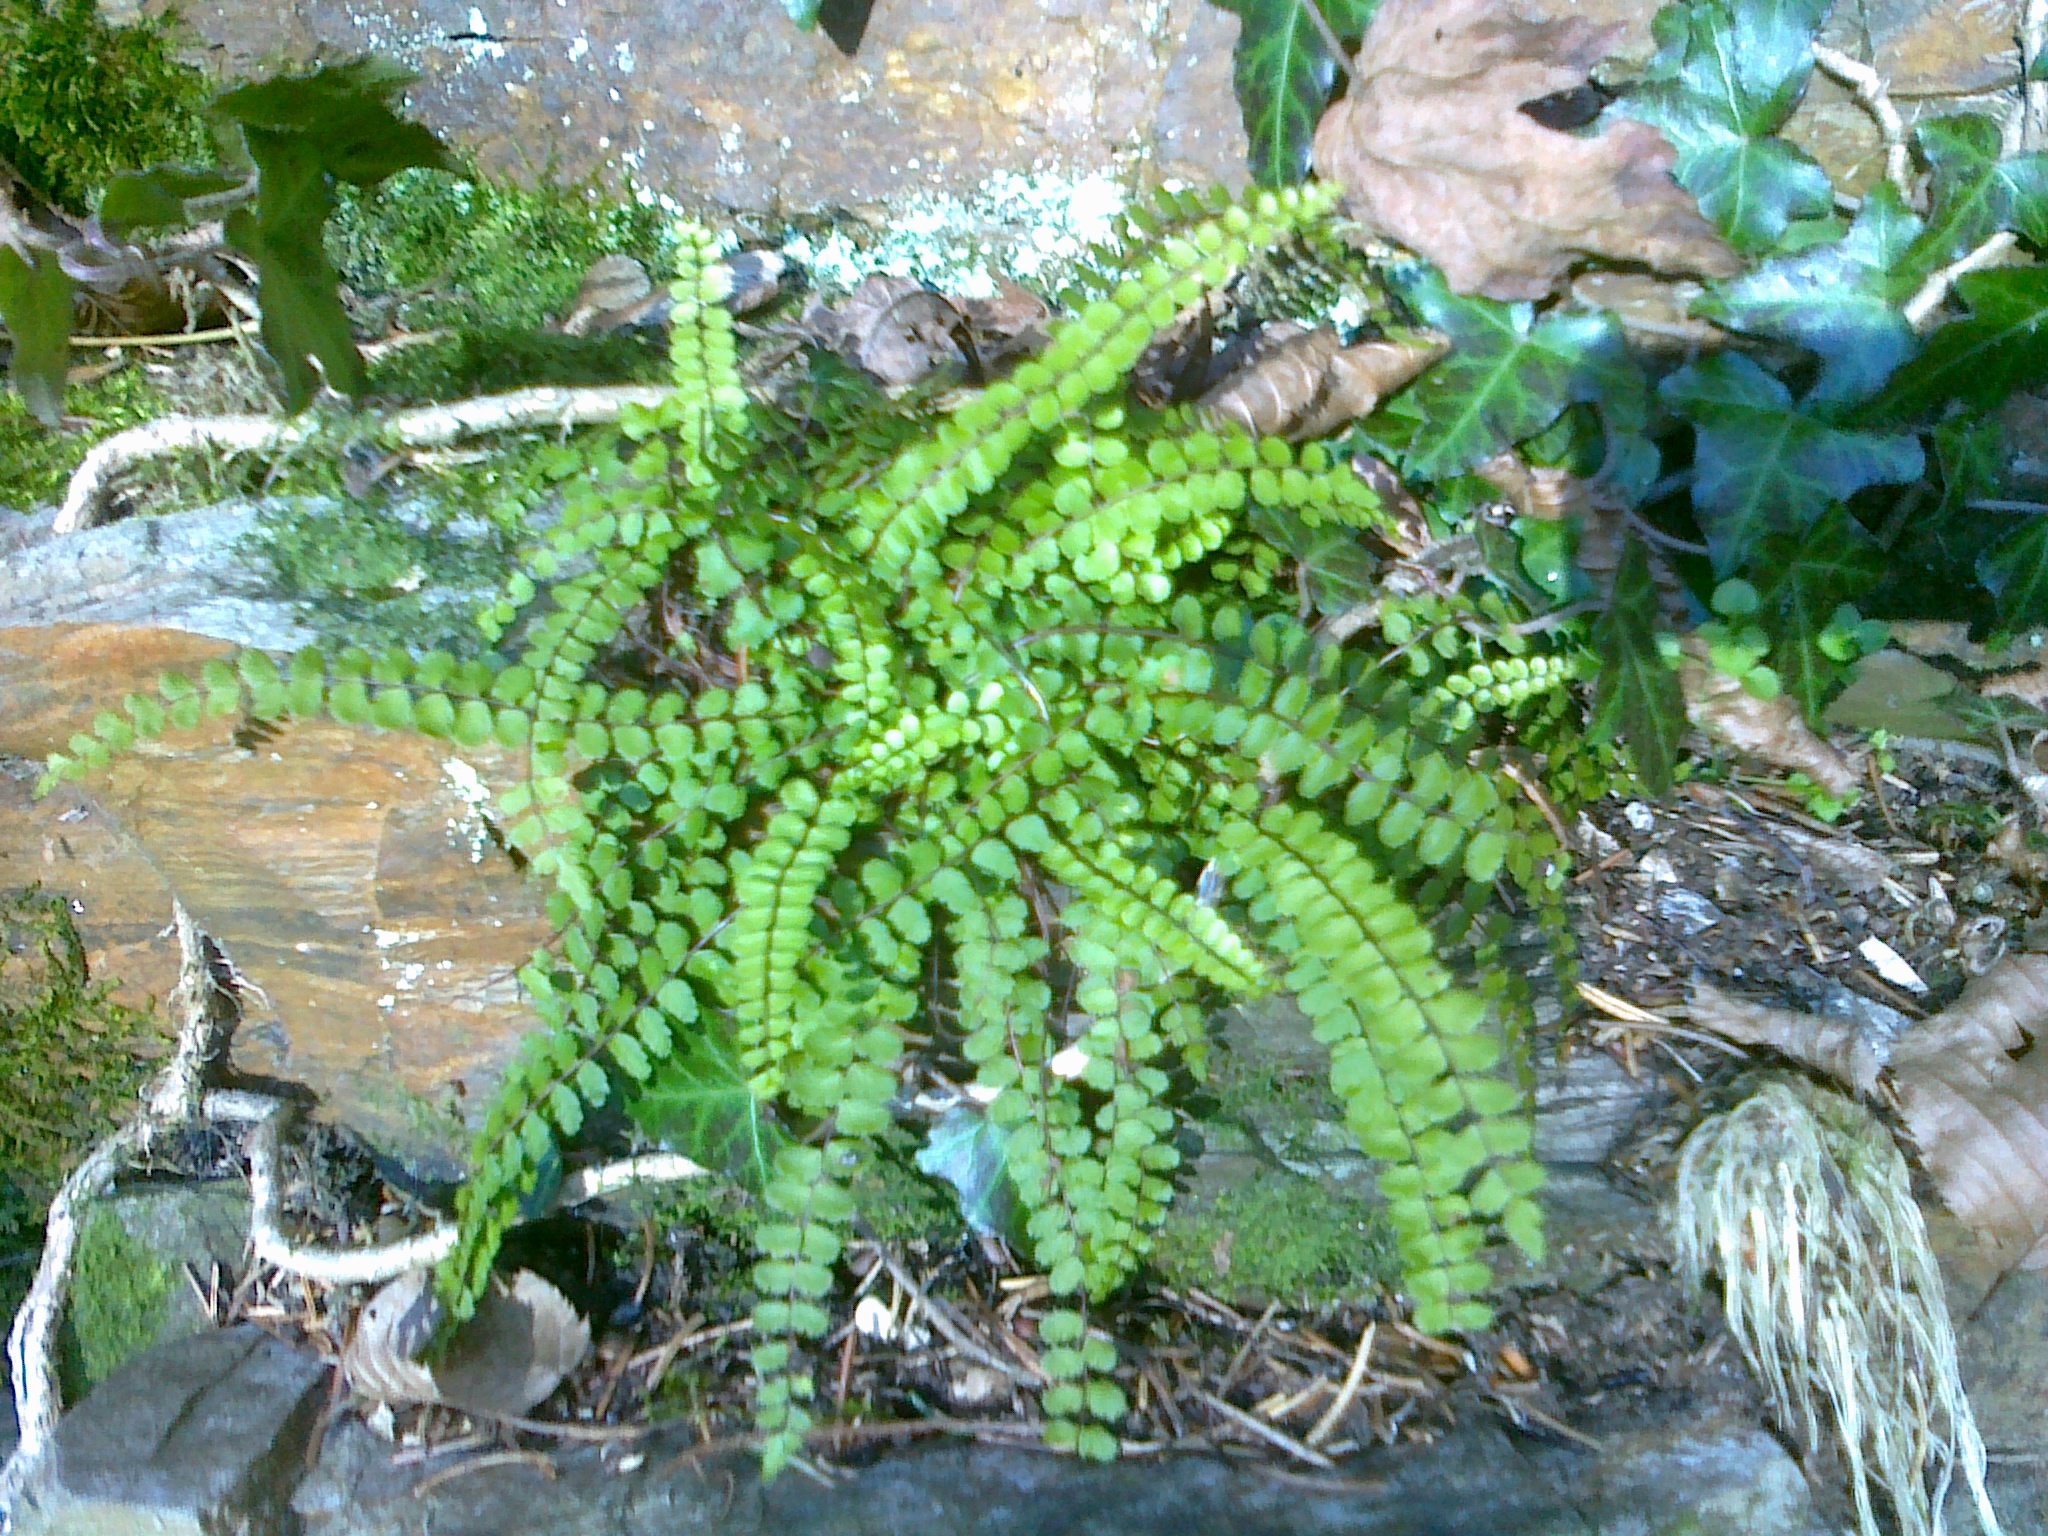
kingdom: Plantae
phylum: Tracheophyta
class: Polypodiopsida
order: Polypodiales
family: Aspleniaceae
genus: Asplenium
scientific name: Asplenium trichomanes
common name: Maidenhair spleenwort
